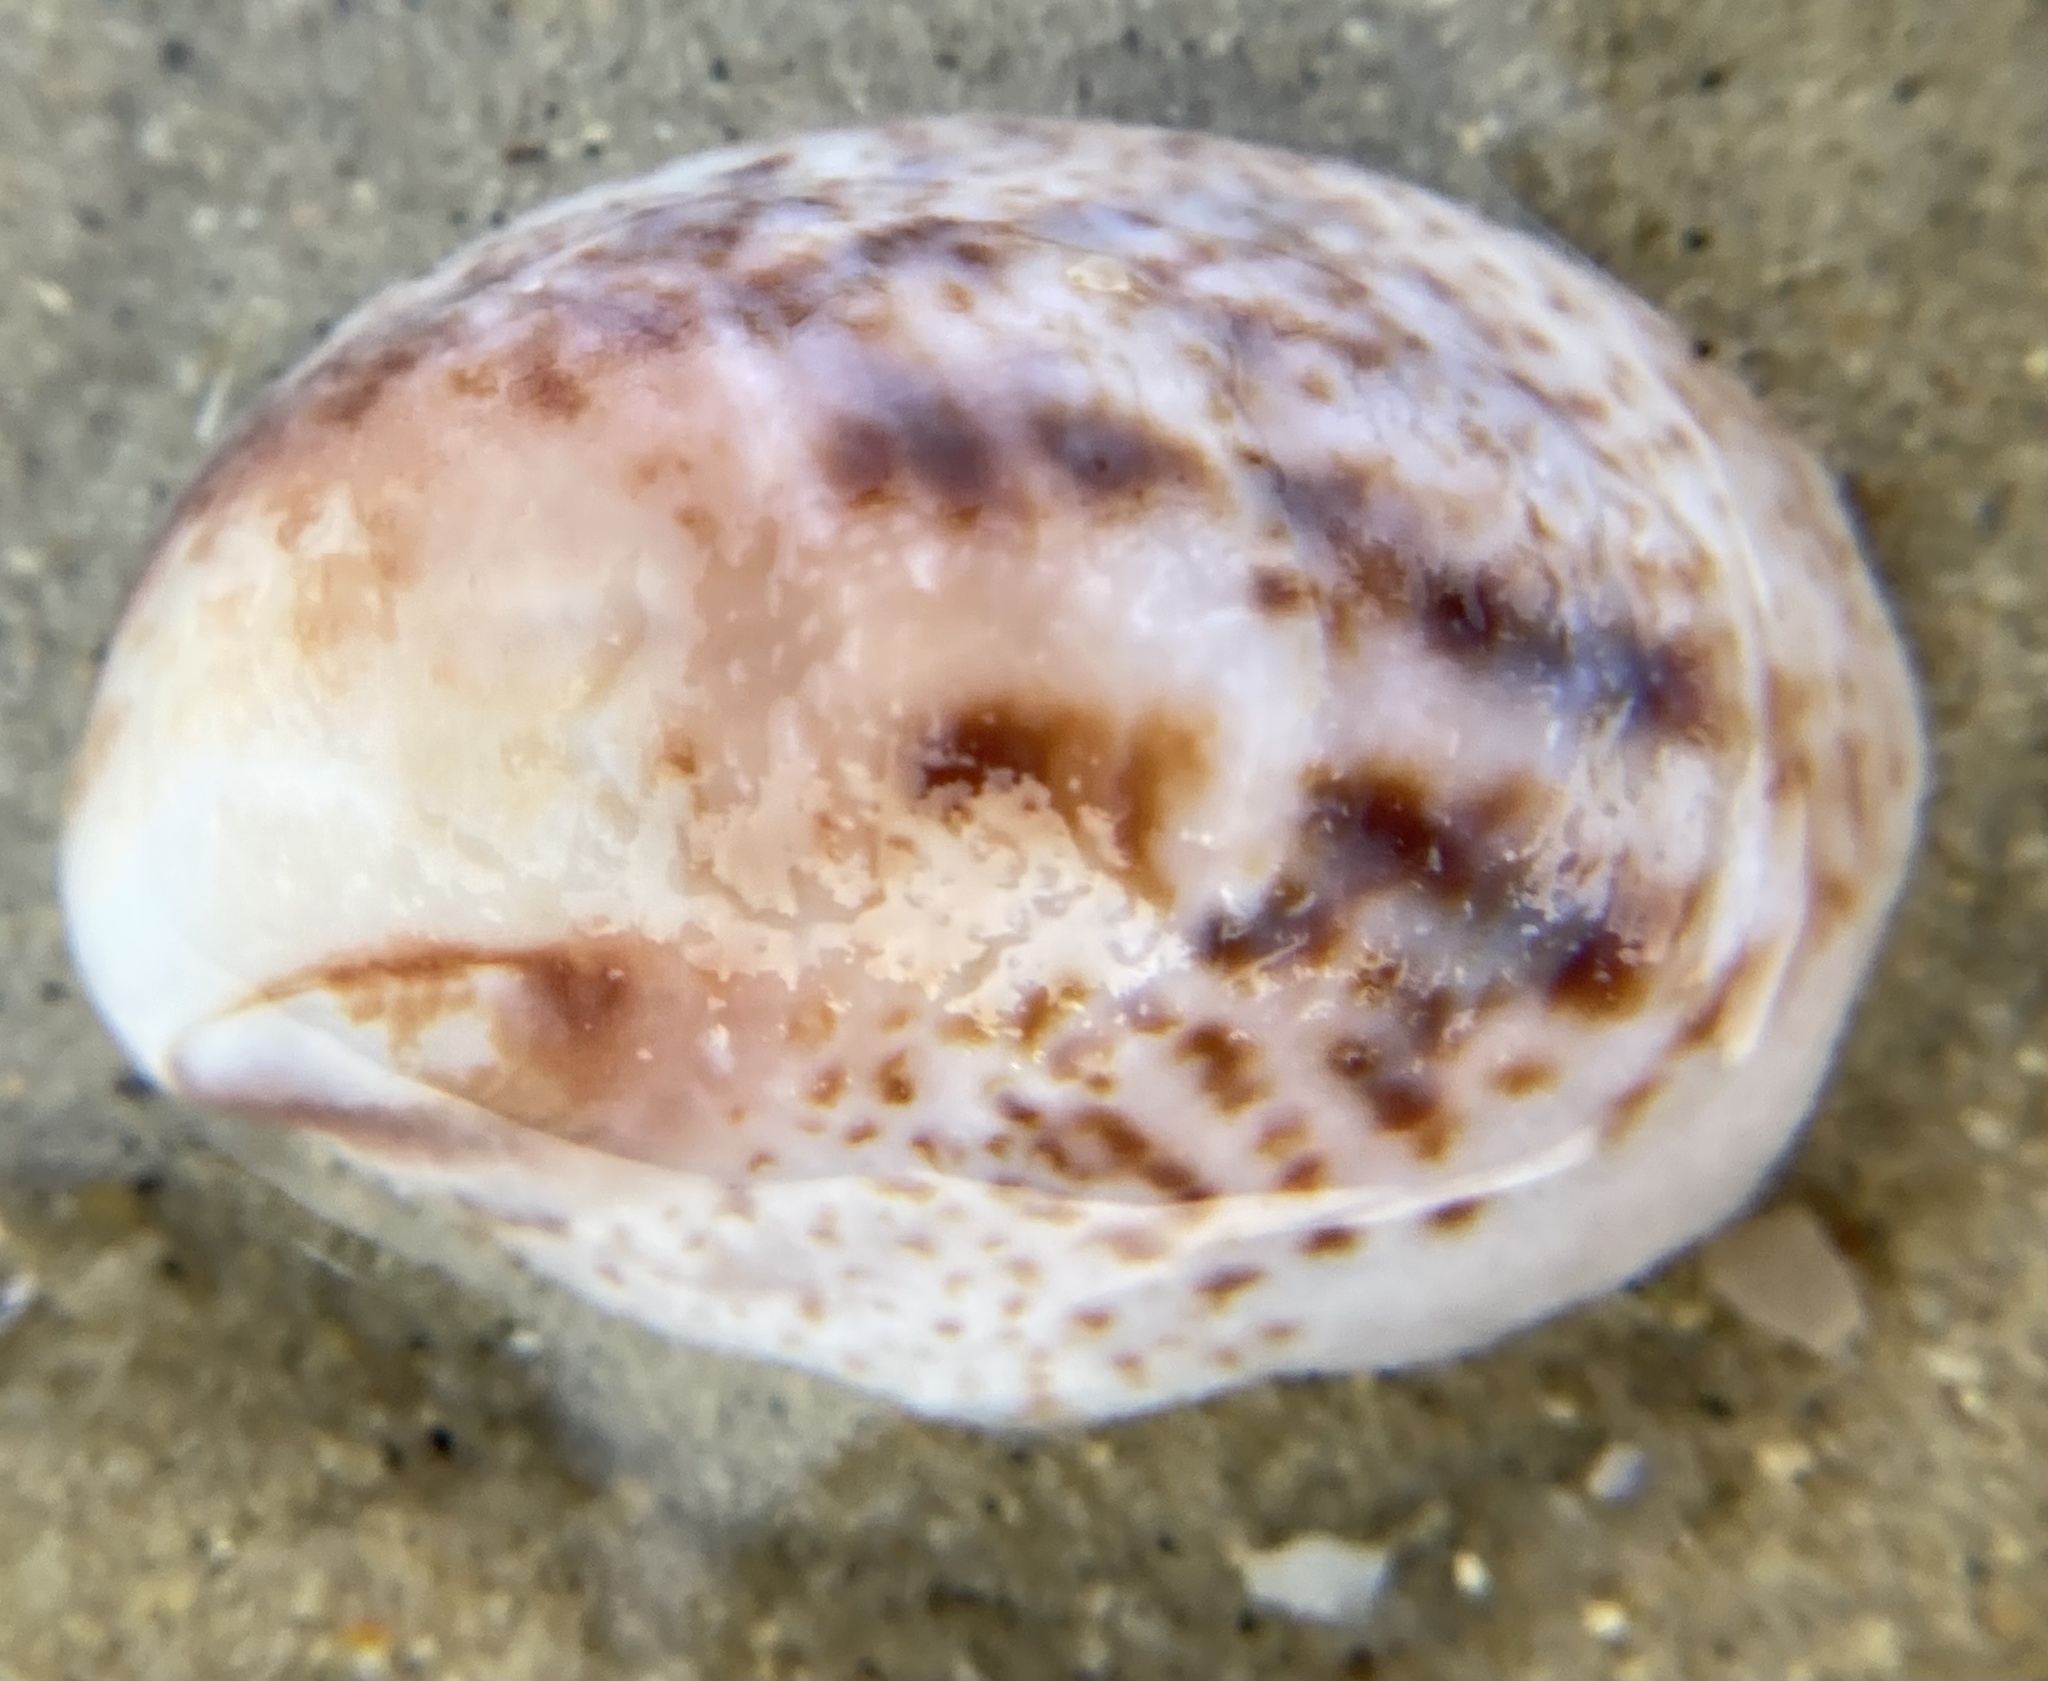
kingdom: Animalia
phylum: Mollusca
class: Gastropoda
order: Littorinimorpha
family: Calyptraeidae
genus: Crepidula
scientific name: Crepidula fornicata
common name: Slipper limpet
